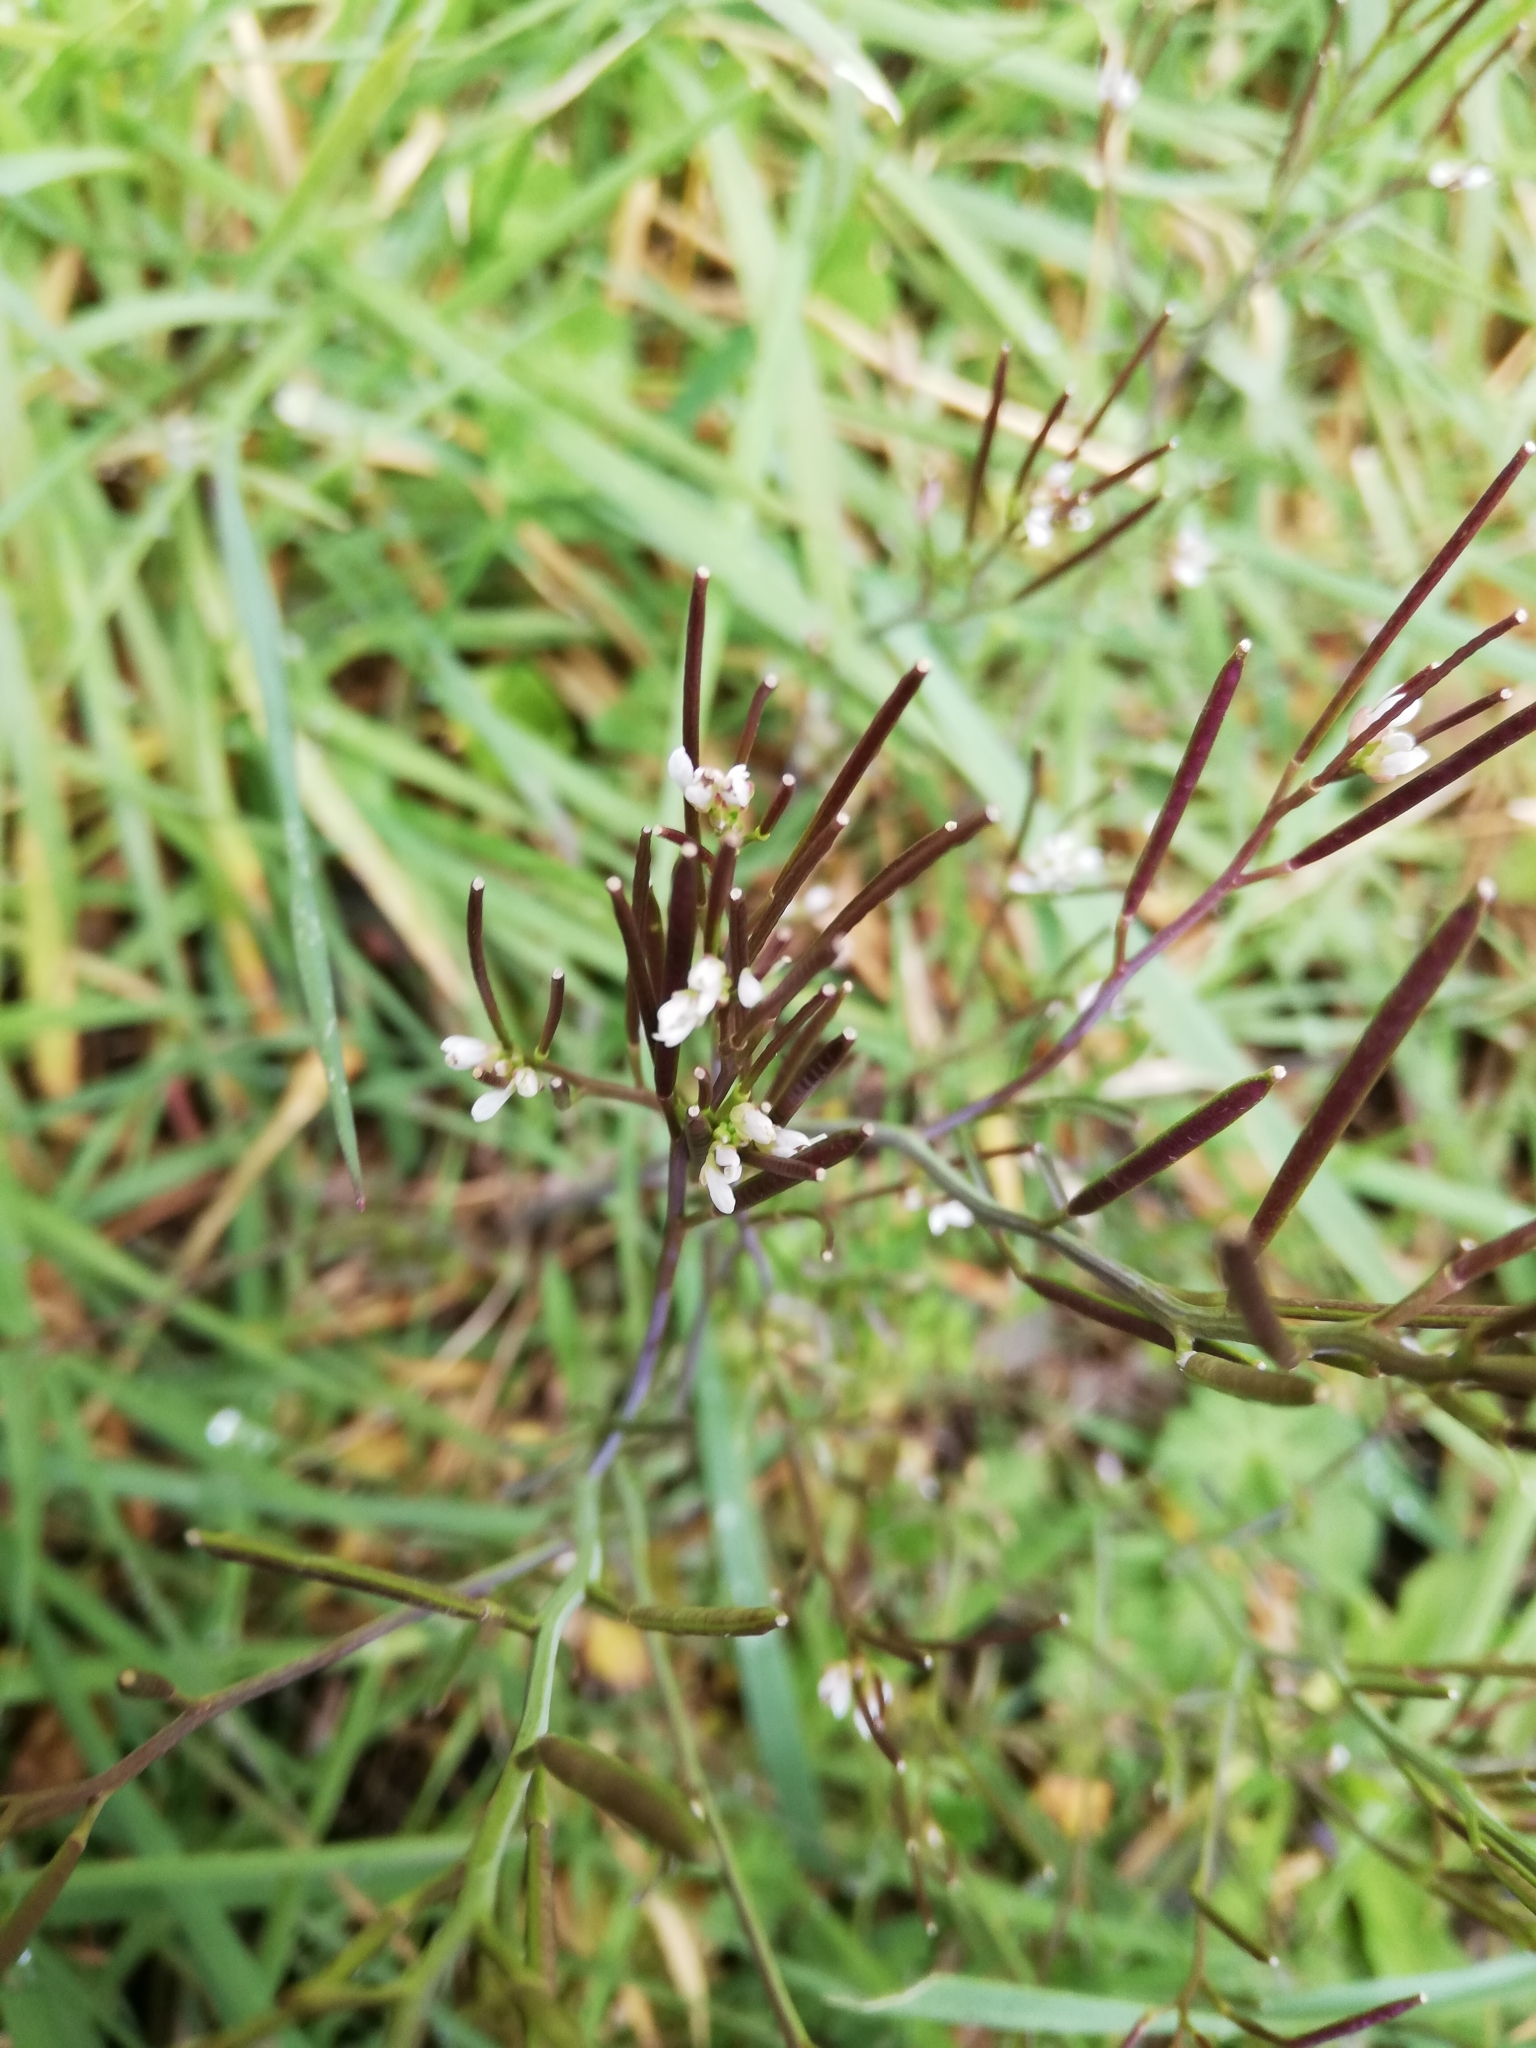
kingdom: Plantae
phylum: Tracheophyta
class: Magnoliopsida
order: Brassicales
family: Brassicaceae
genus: Cardamine
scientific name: Cardamine hirsuta
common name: Hairy bittercress
